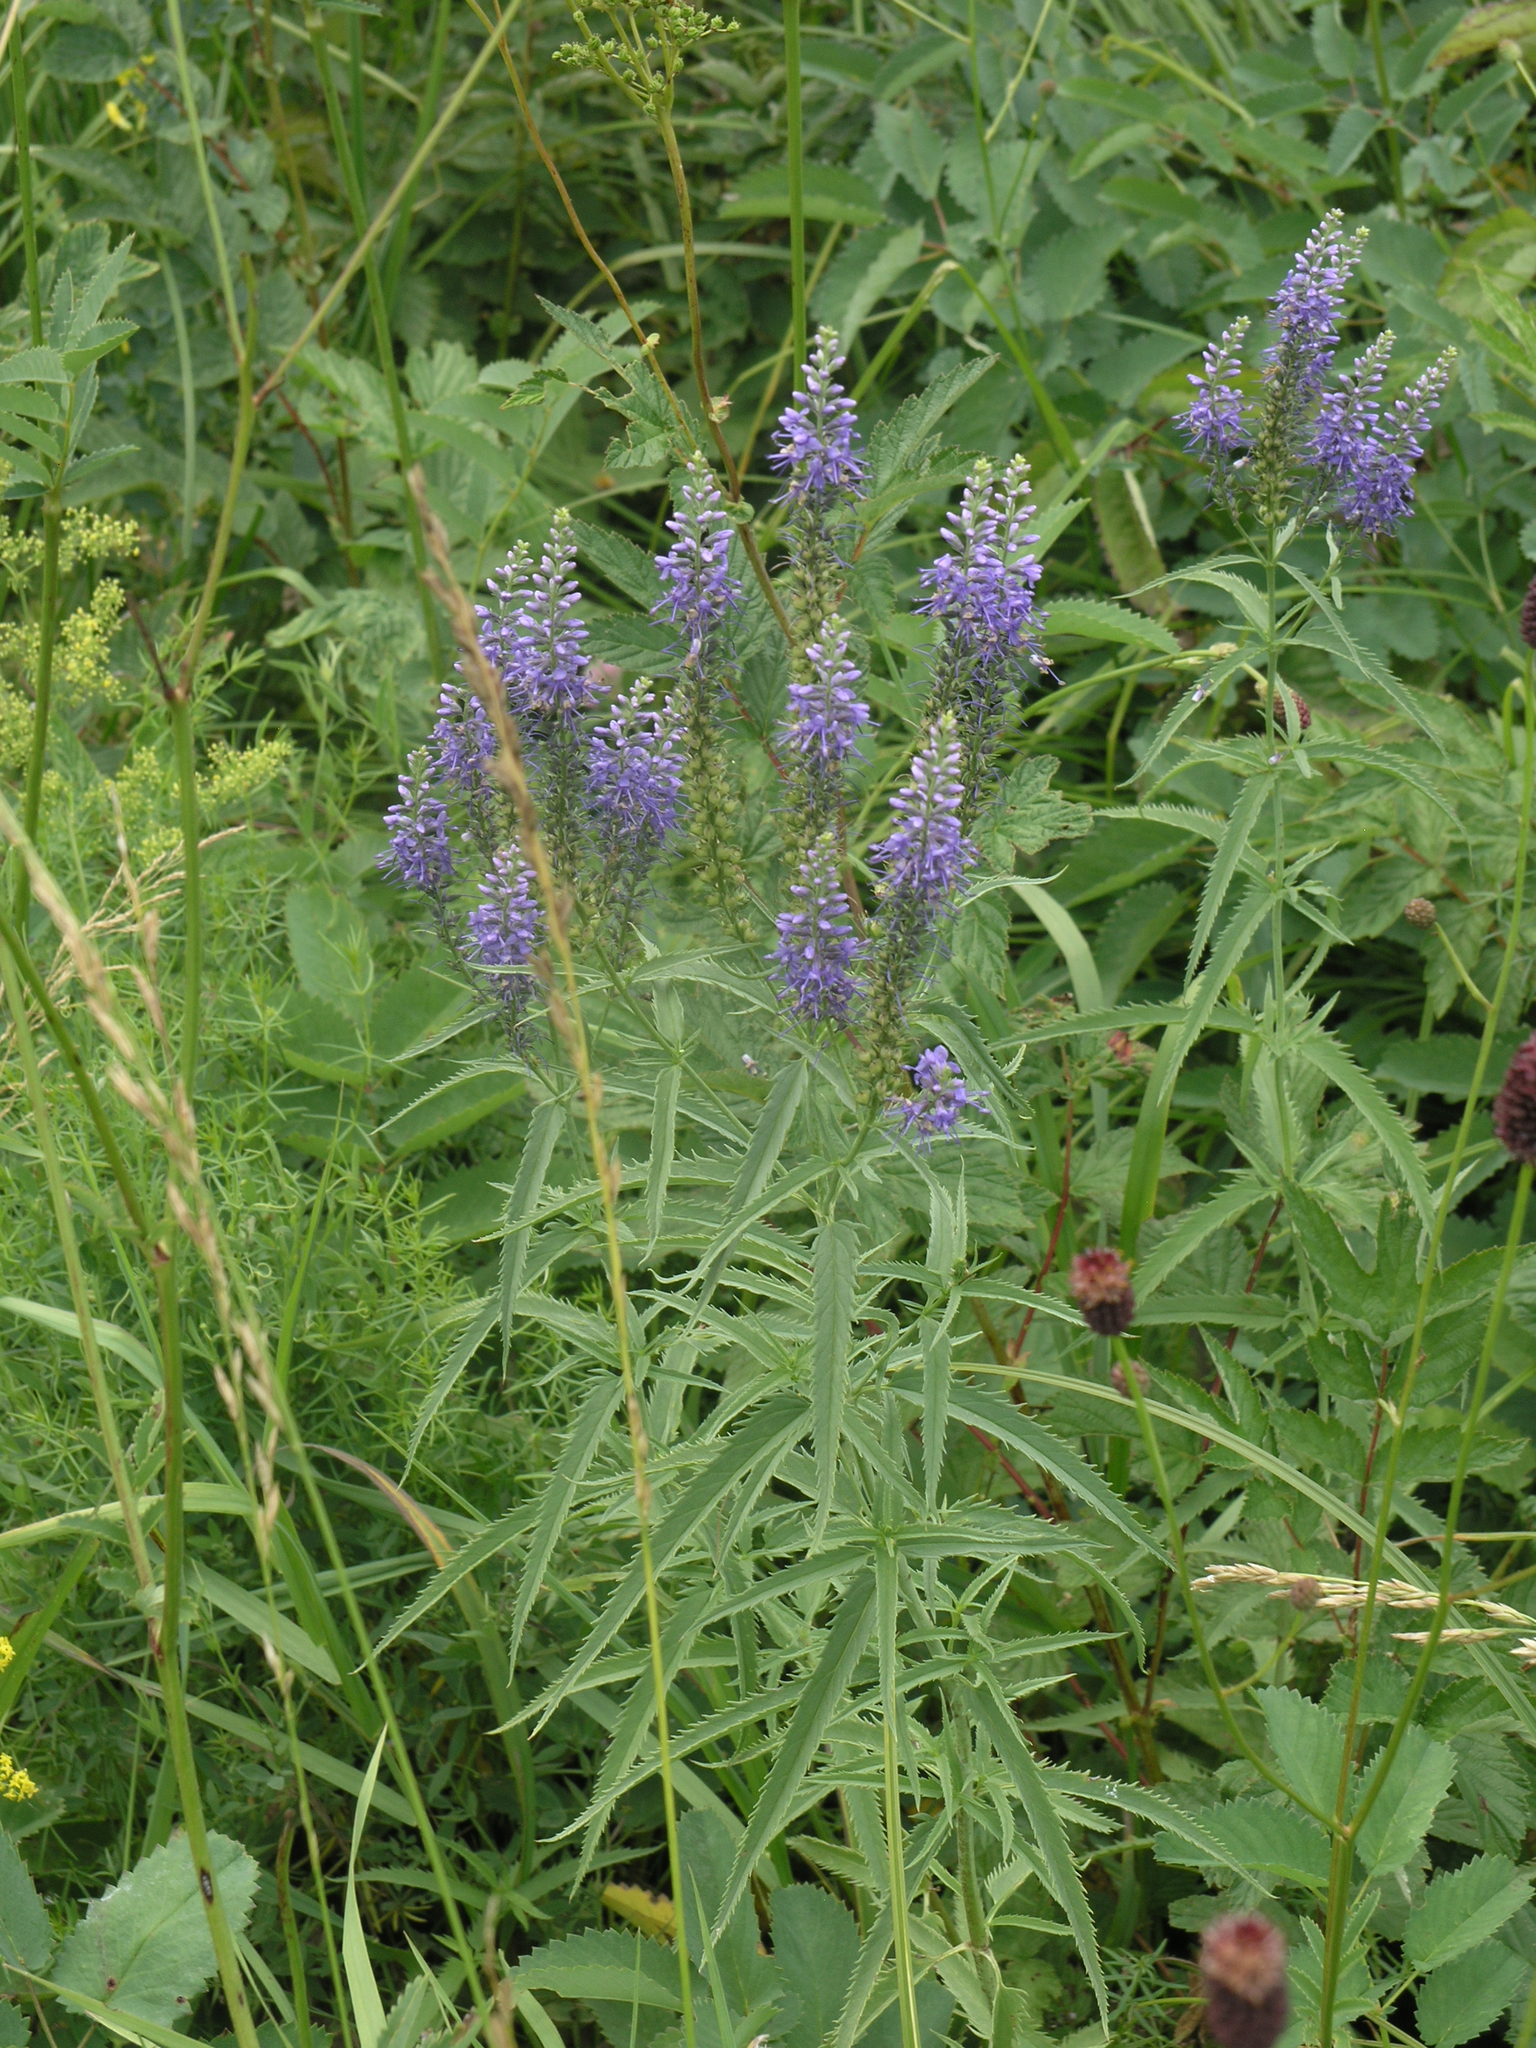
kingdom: Plantae
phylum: Tracheophyta
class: Magnoliopsida
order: Lamiales
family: Plantaginaceae
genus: Veronica
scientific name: Veronica longifolia
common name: Garden speedwell
